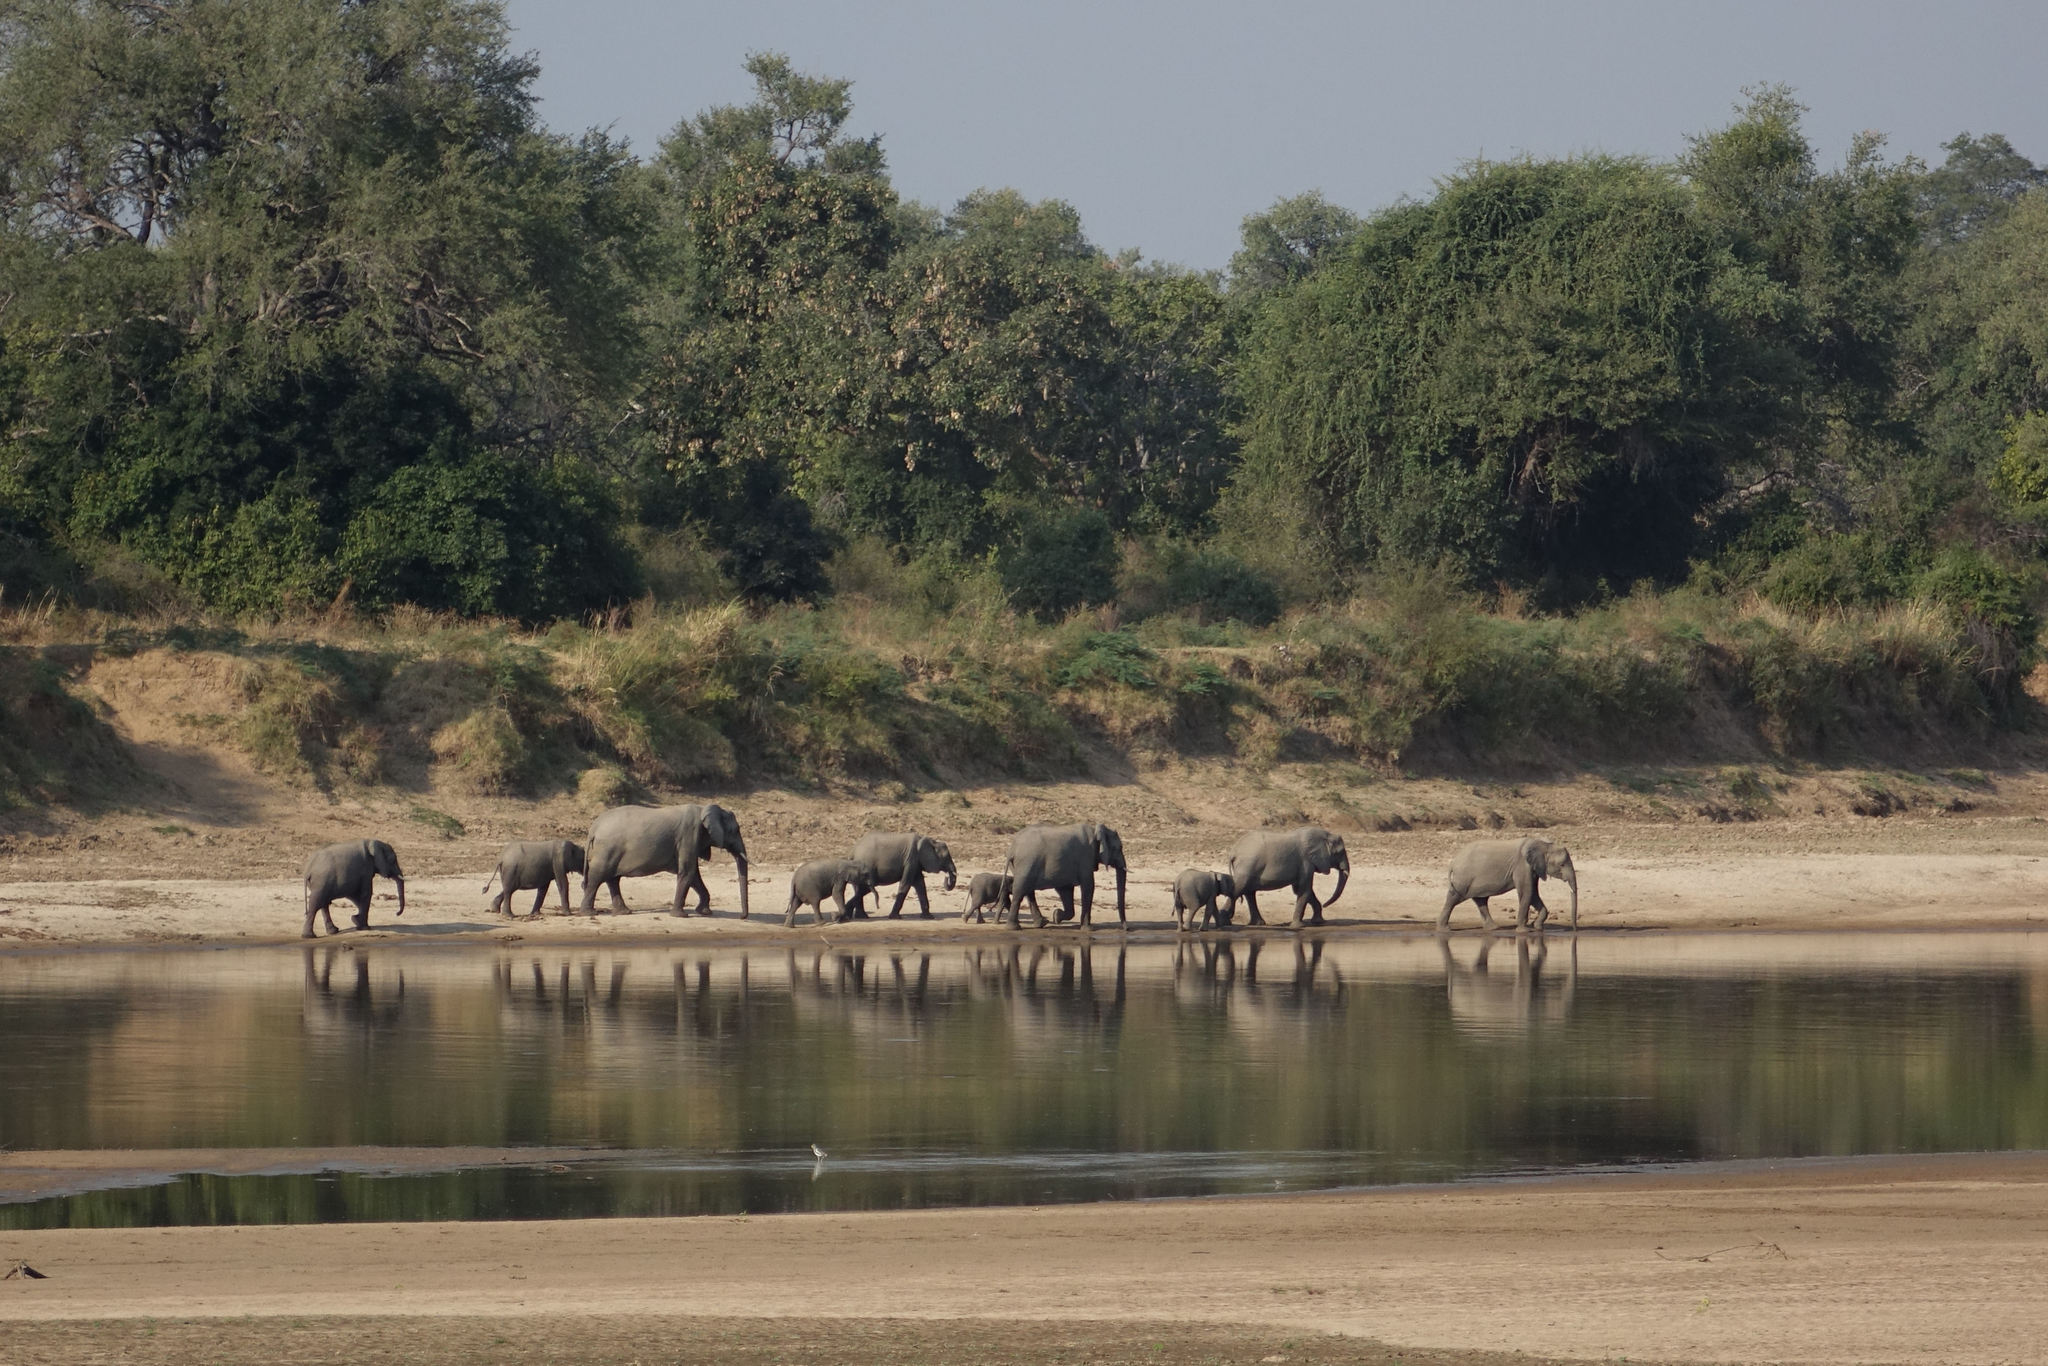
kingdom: Animalia
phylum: Chordata
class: Mammalia
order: Proboscidea
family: Elephantidae
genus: Loxodonta
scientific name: Loxodonta africana
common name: African elephant
